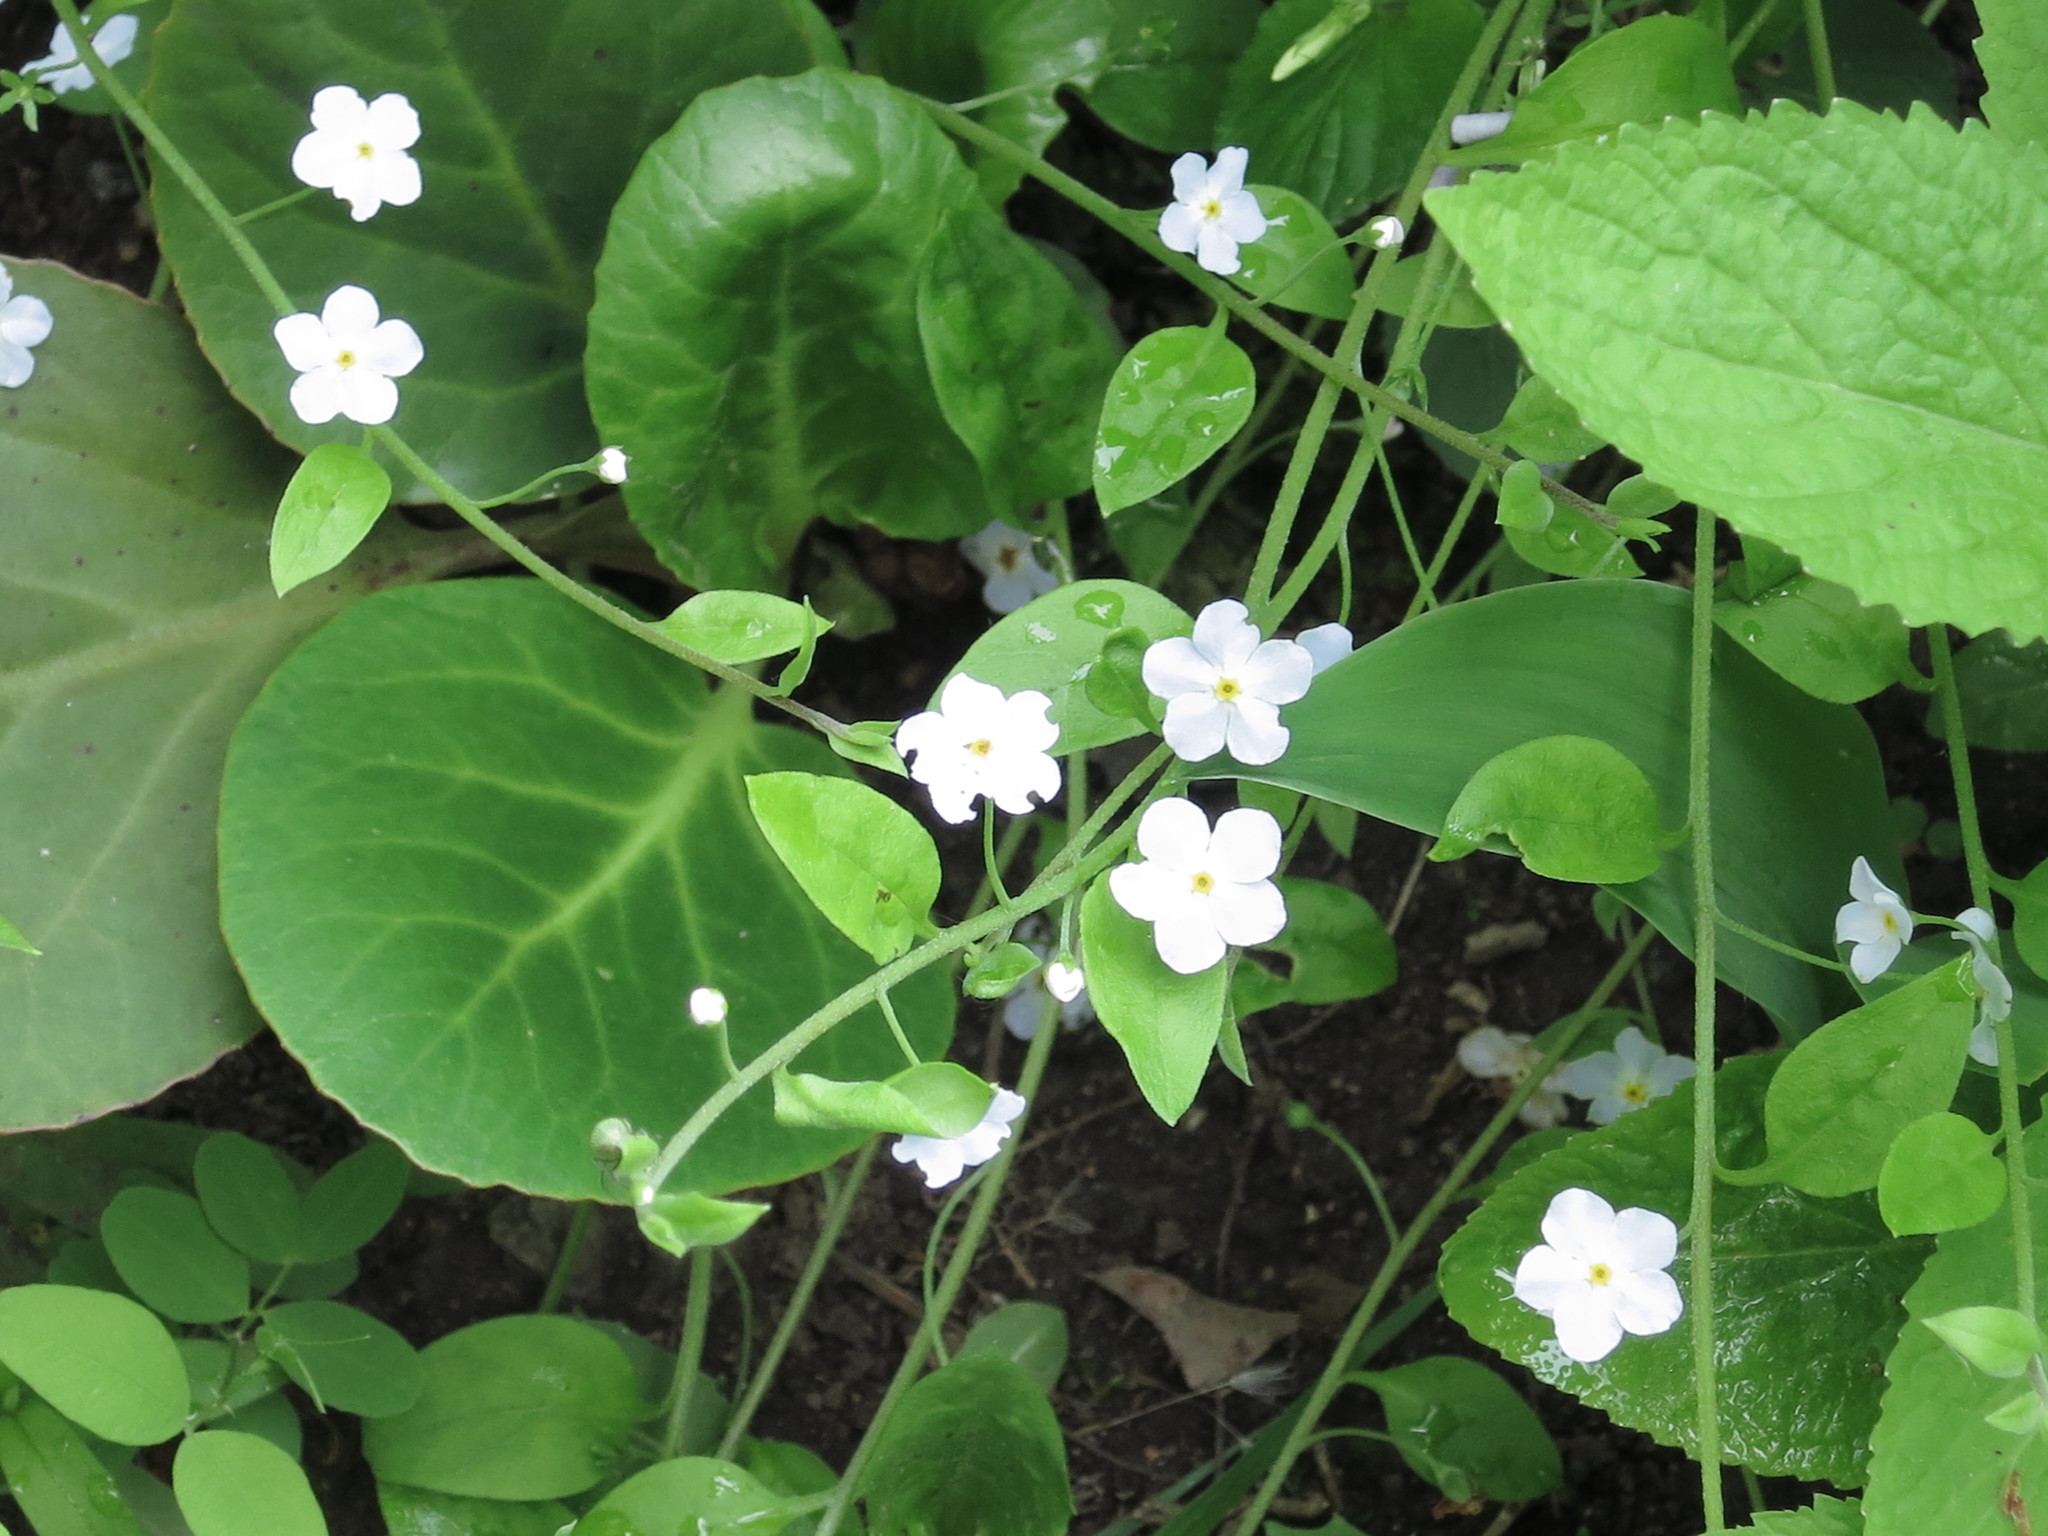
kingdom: Plantae
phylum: Tracheophyta
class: Magnoliopsida
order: Boraginales
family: Boraginaceae
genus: Trigonotis
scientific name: Trigonotis radicans
